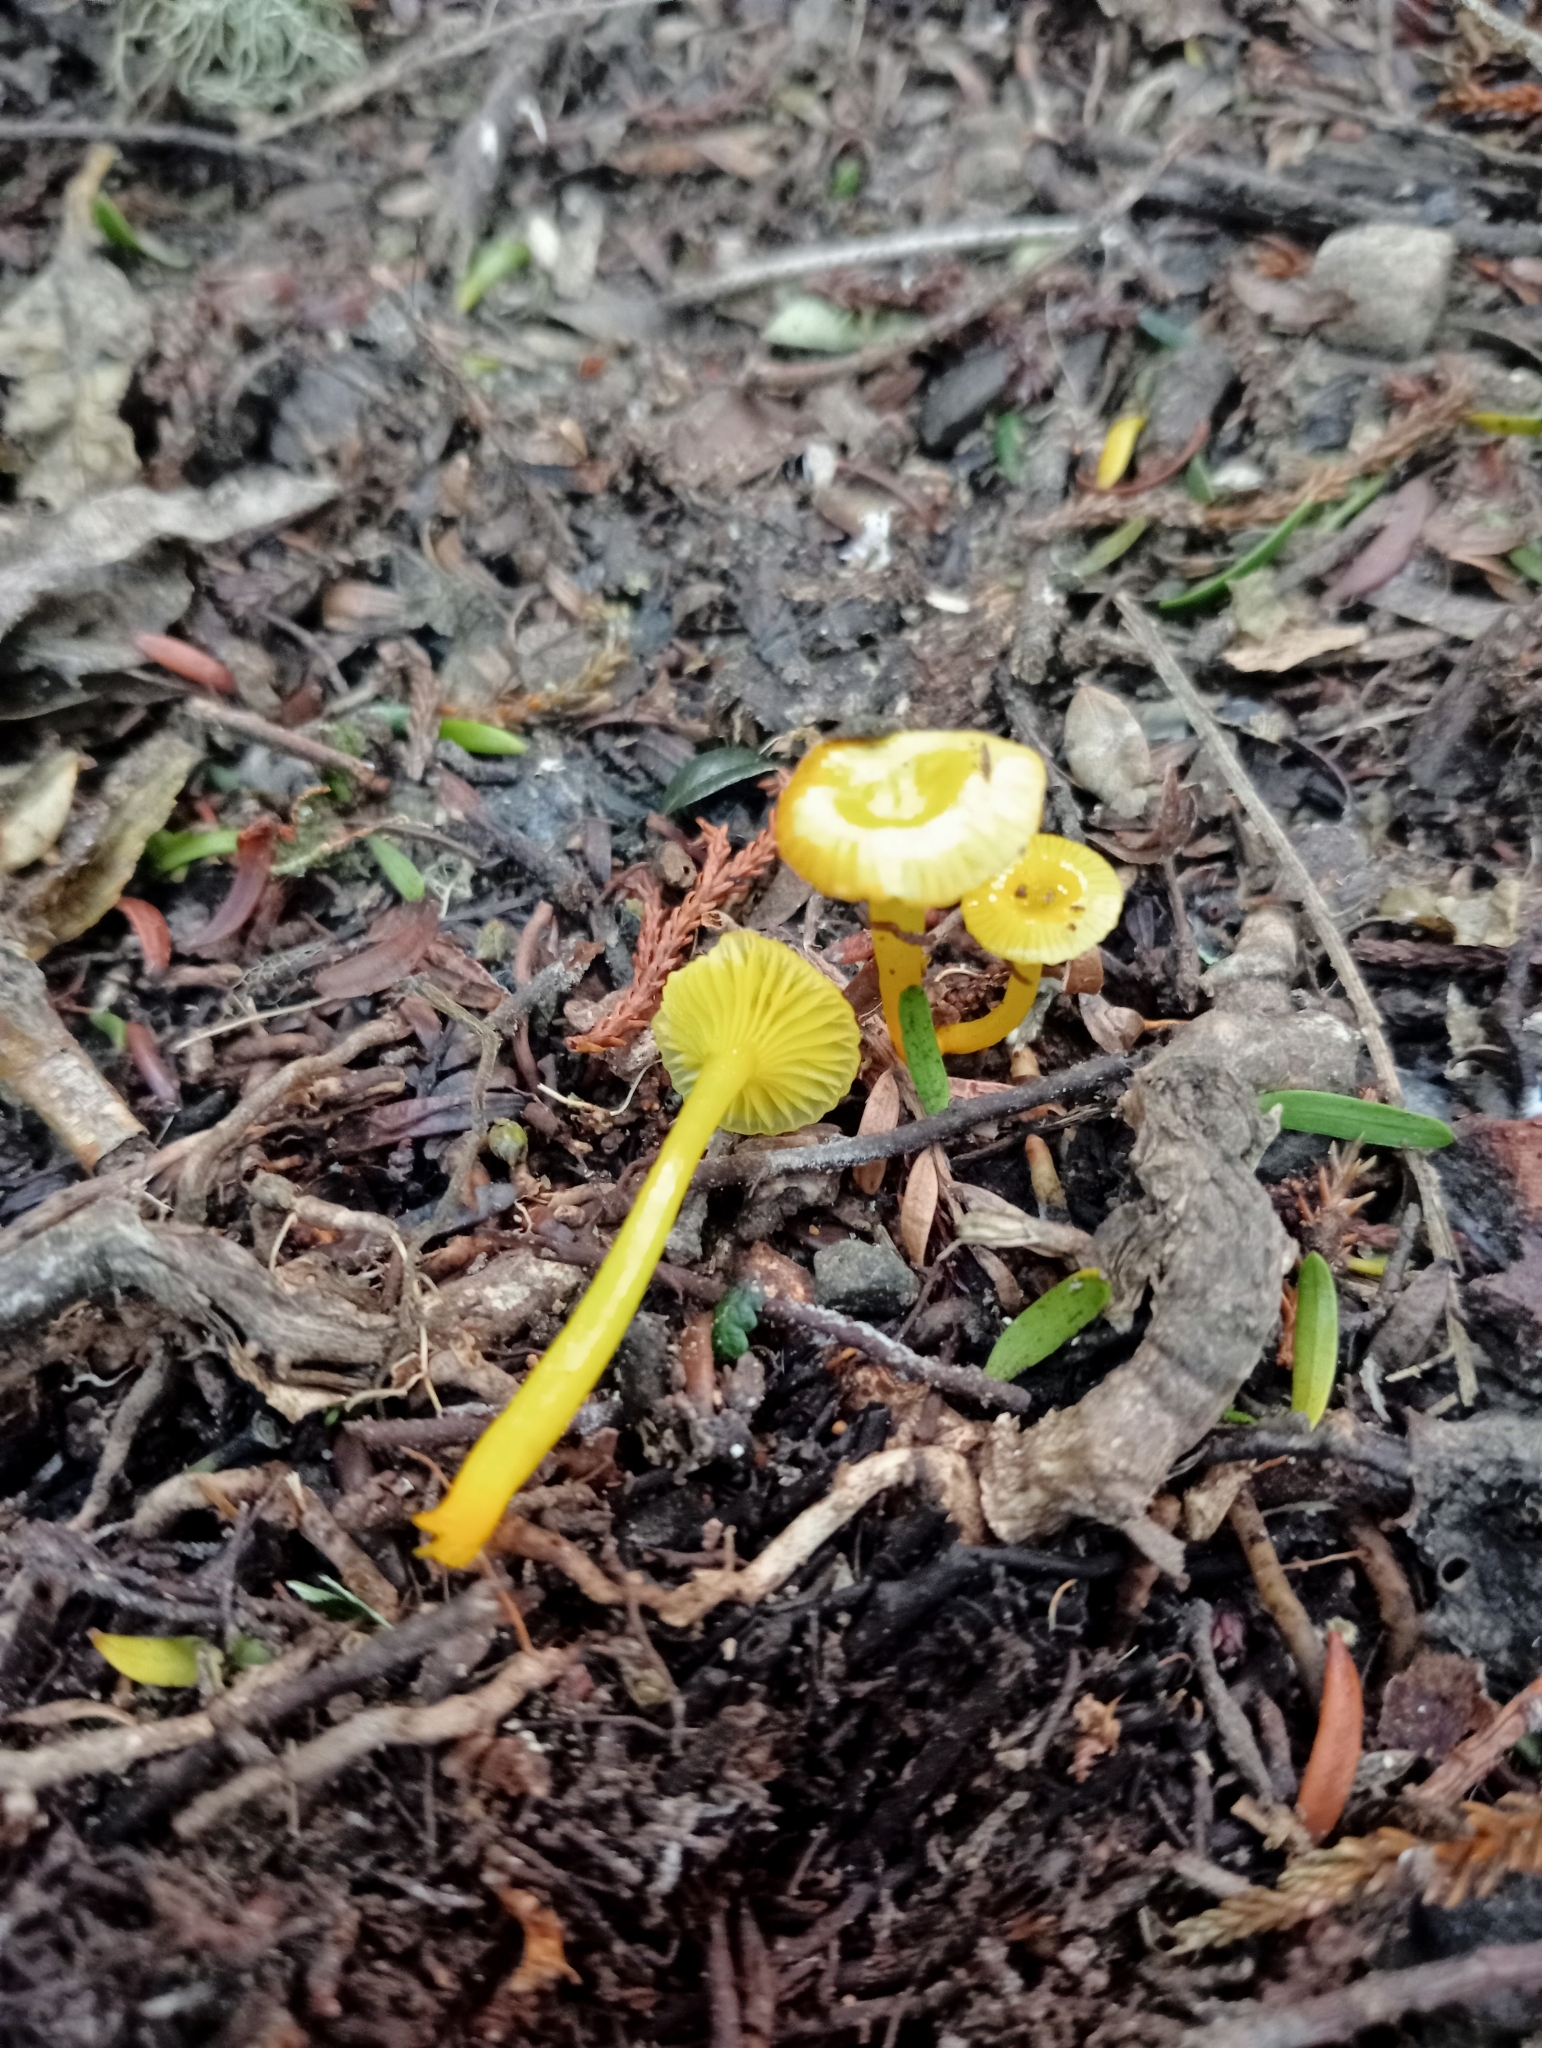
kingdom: Fungi
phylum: Basidiomycota
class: Agaricomycetes
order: Agaricales
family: Hygrophoraceae
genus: Gloioxanthomyces
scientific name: Gloioxanthomyces
